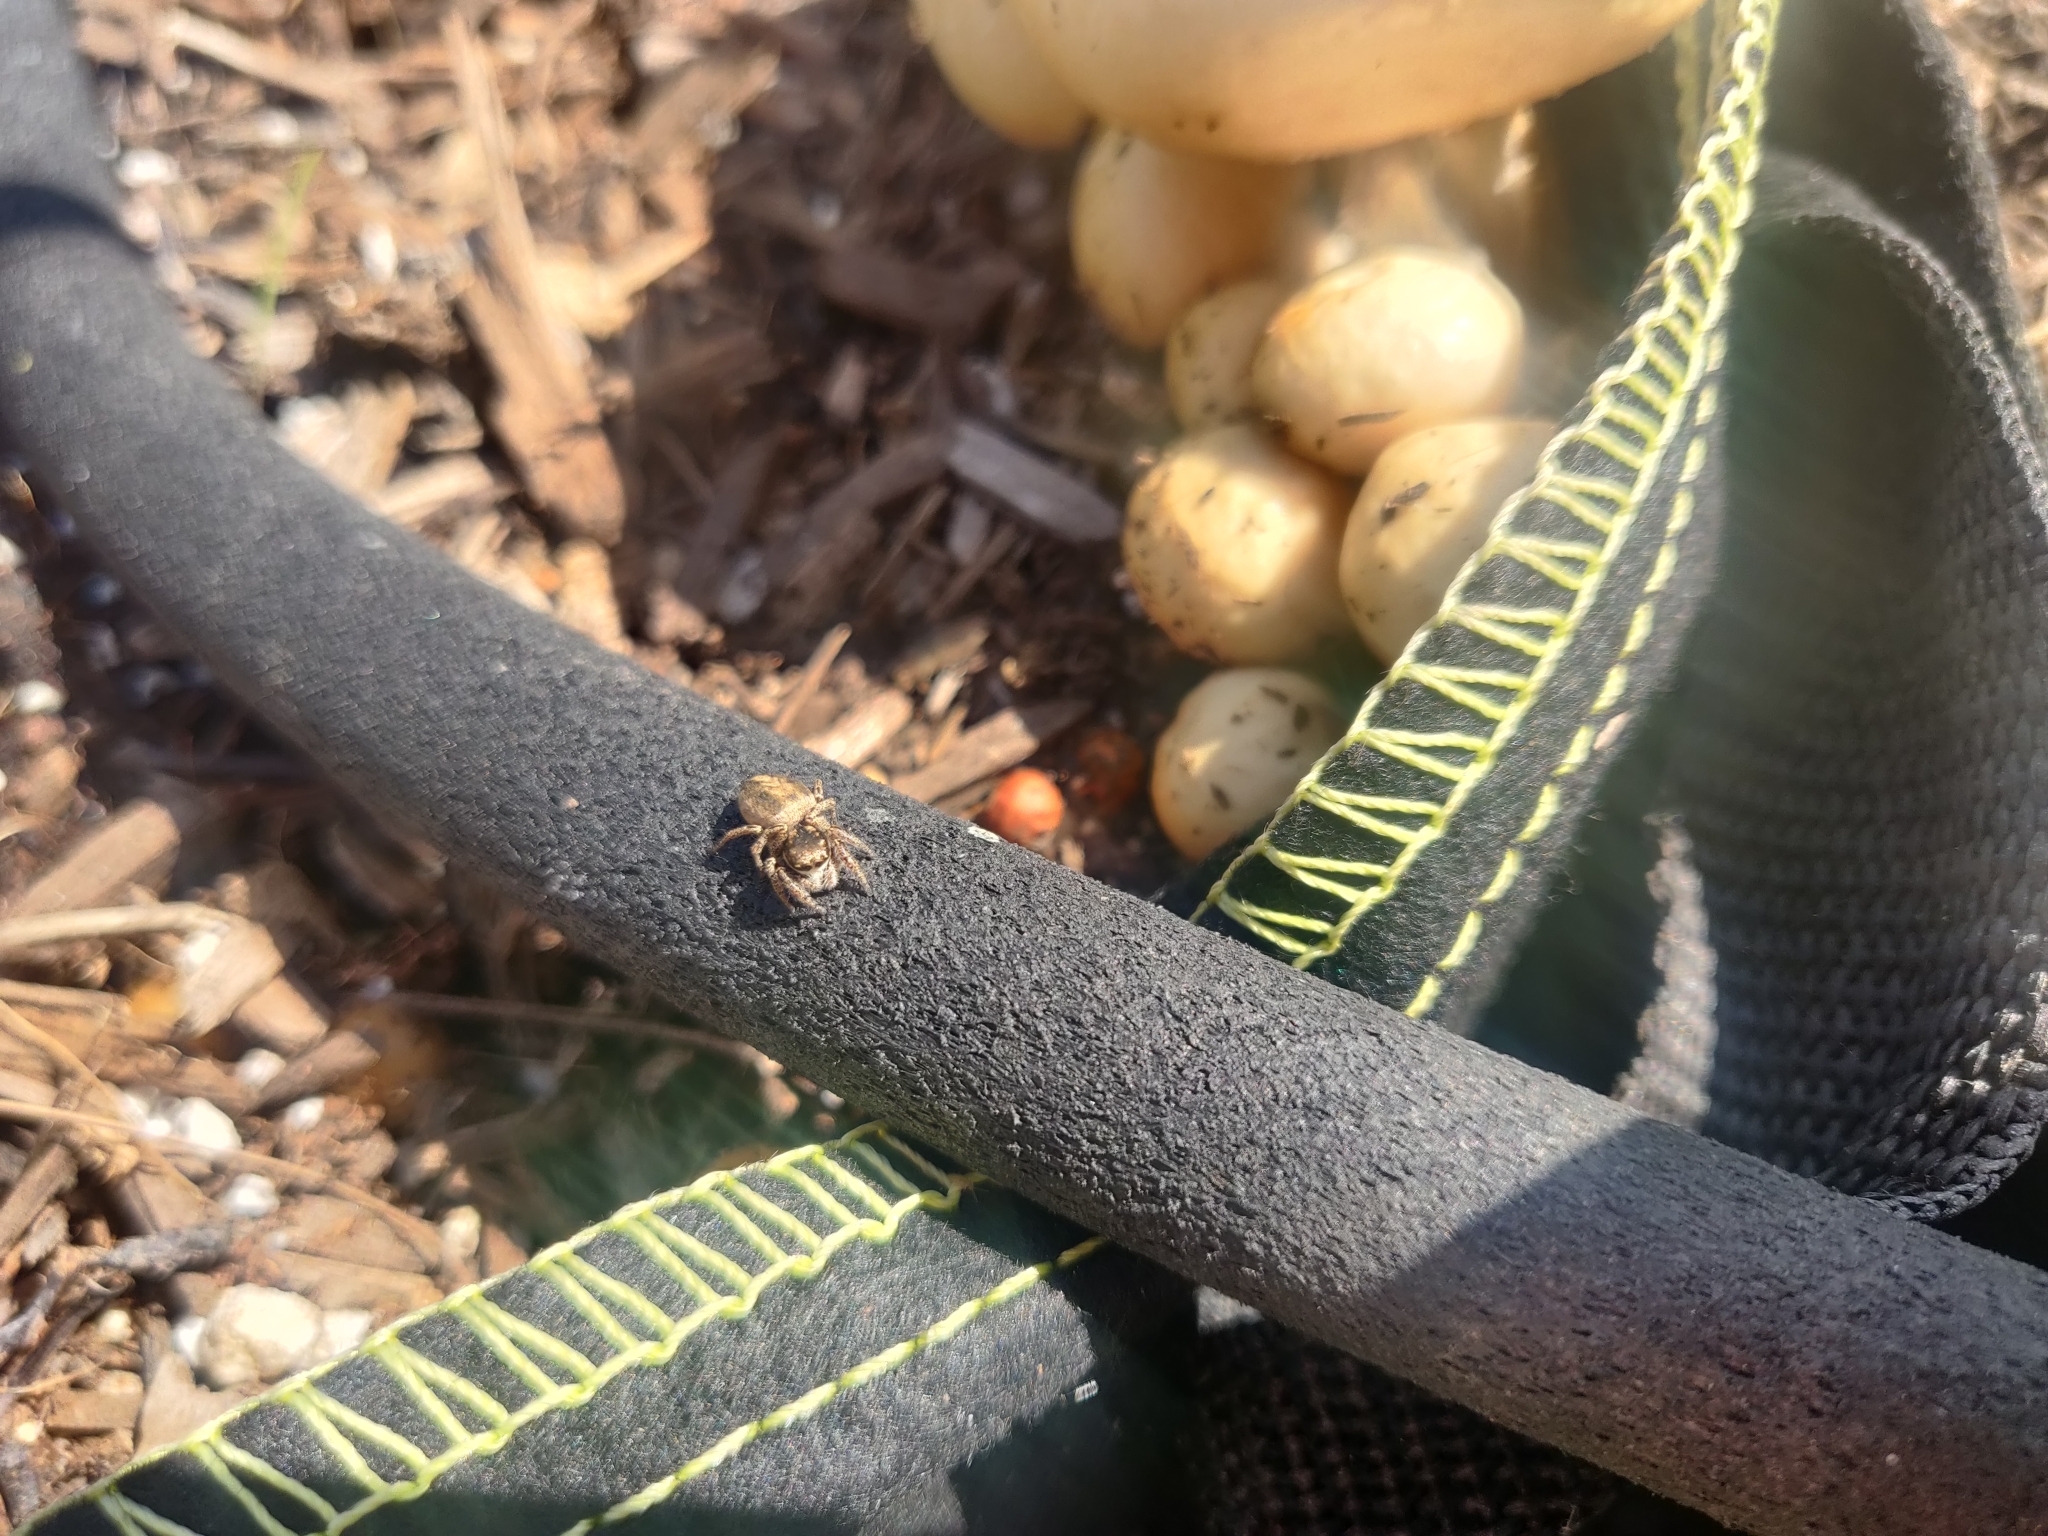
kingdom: Animalia
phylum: Arthropoda
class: Arachnida
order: Araneae
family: Salticidae
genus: Habronattus
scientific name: Habronattus pyrrithrix
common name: Jumping spider
